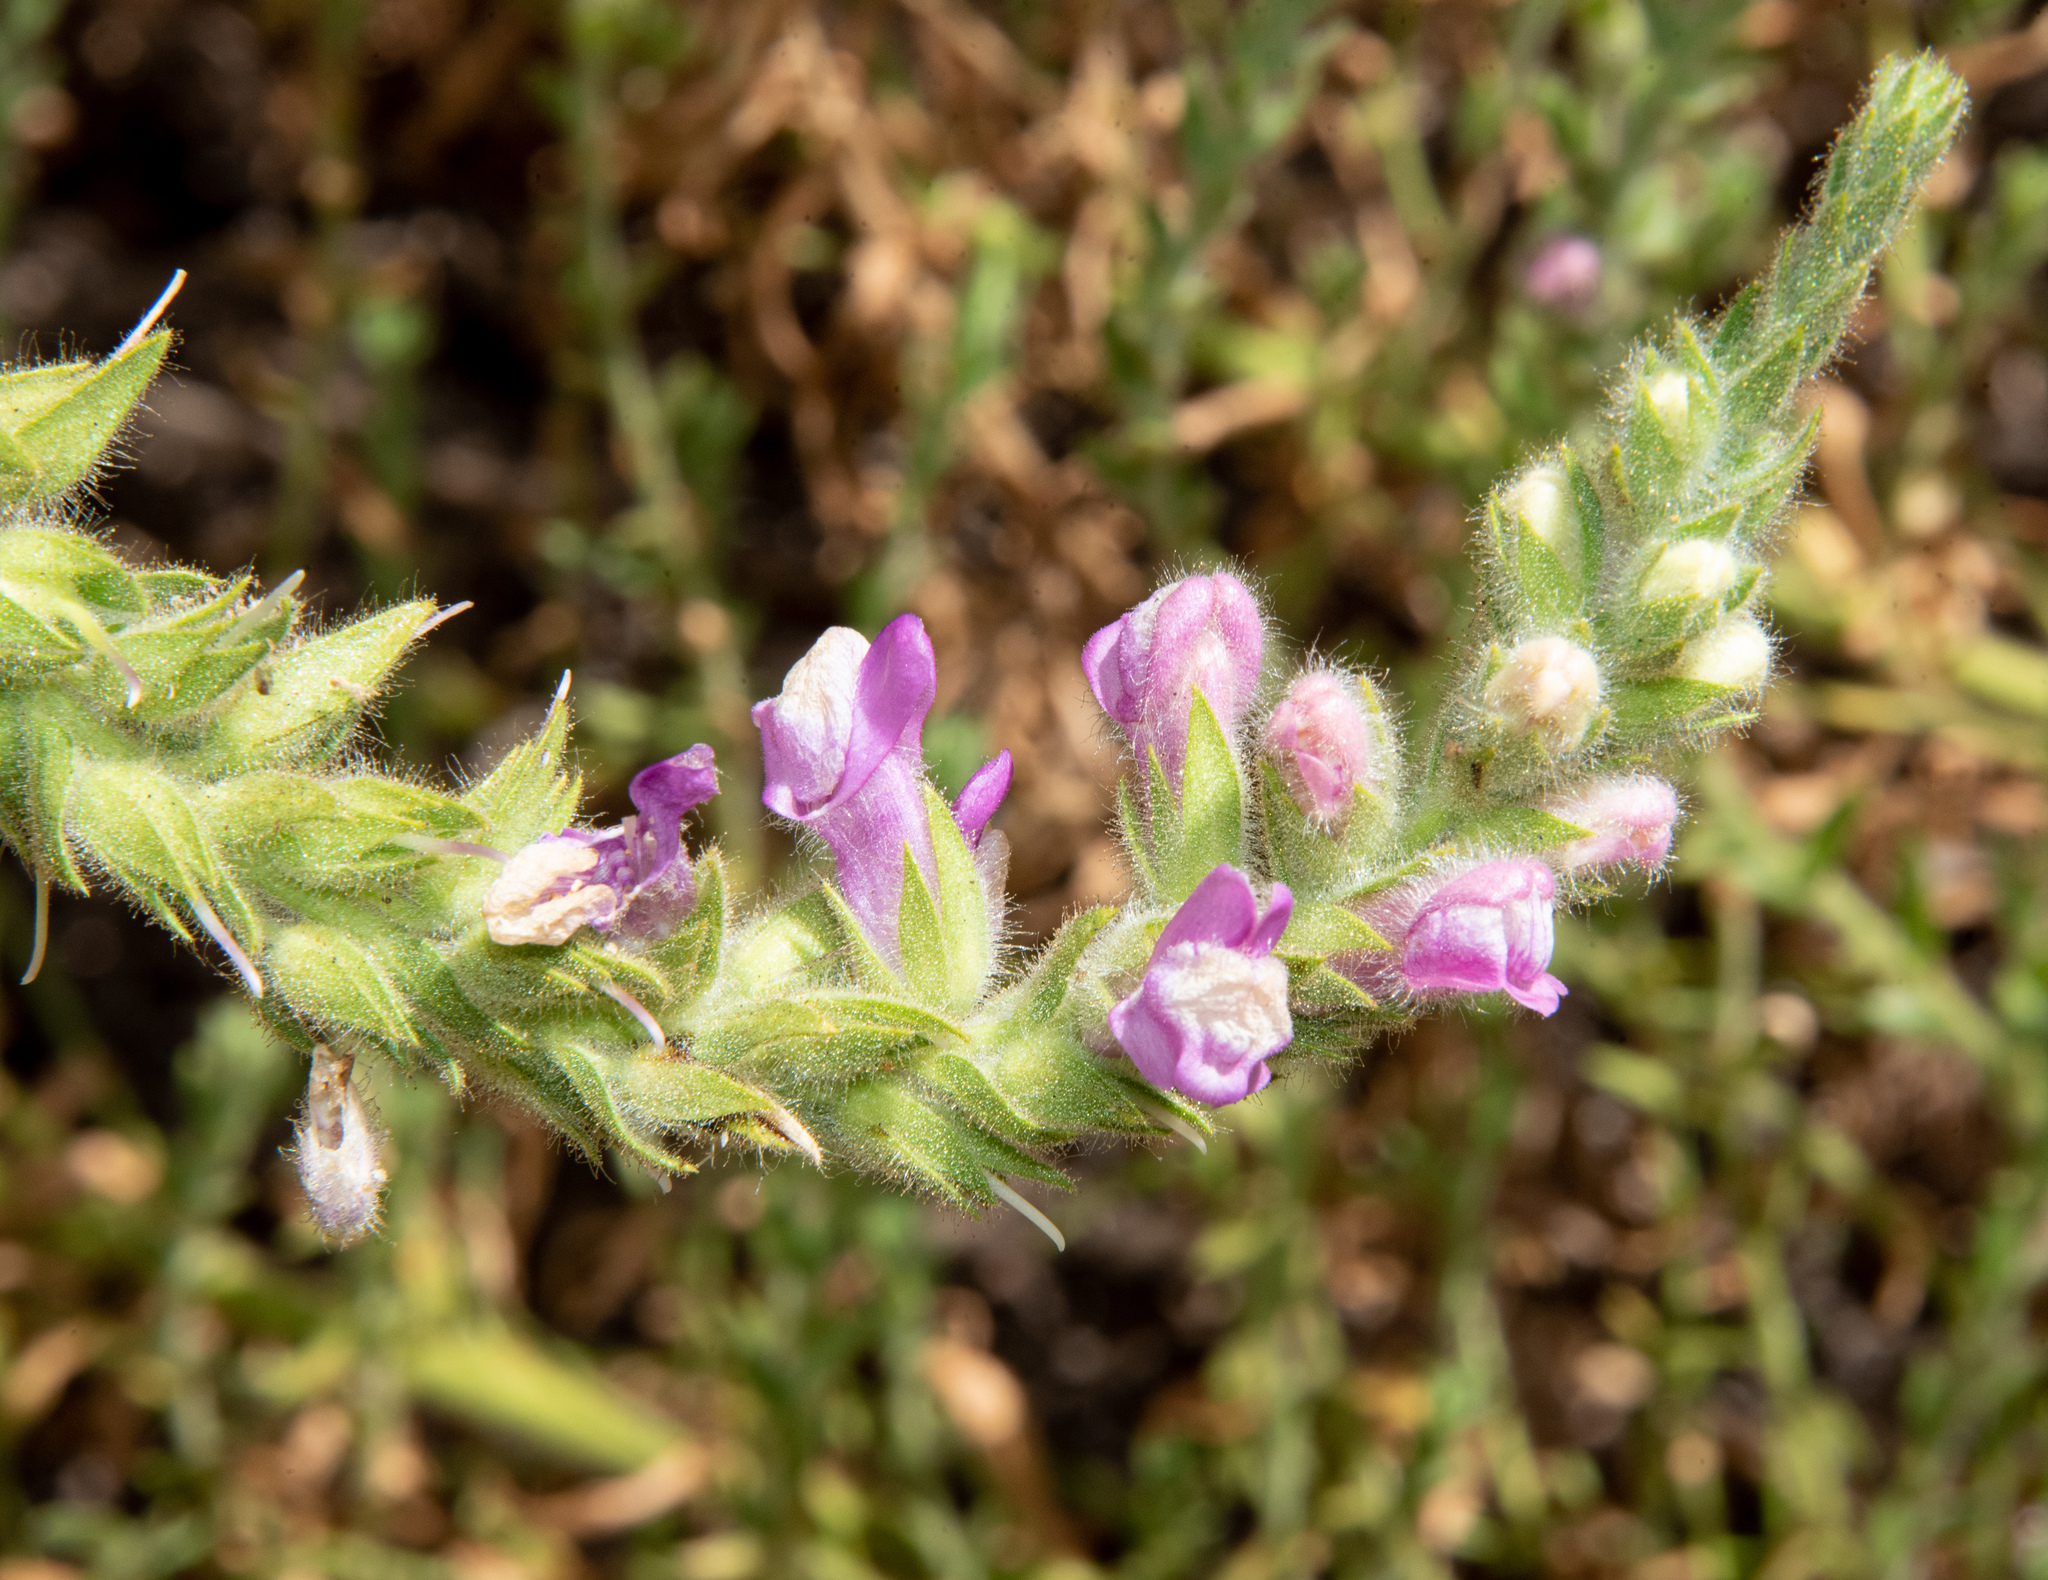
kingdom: Plantae
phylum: Tracheophyta
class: Magnoliopsida
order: Lamiales
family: Plantaginaceae
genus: Sairocarpus
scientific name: Sairocarpus multiflorus
